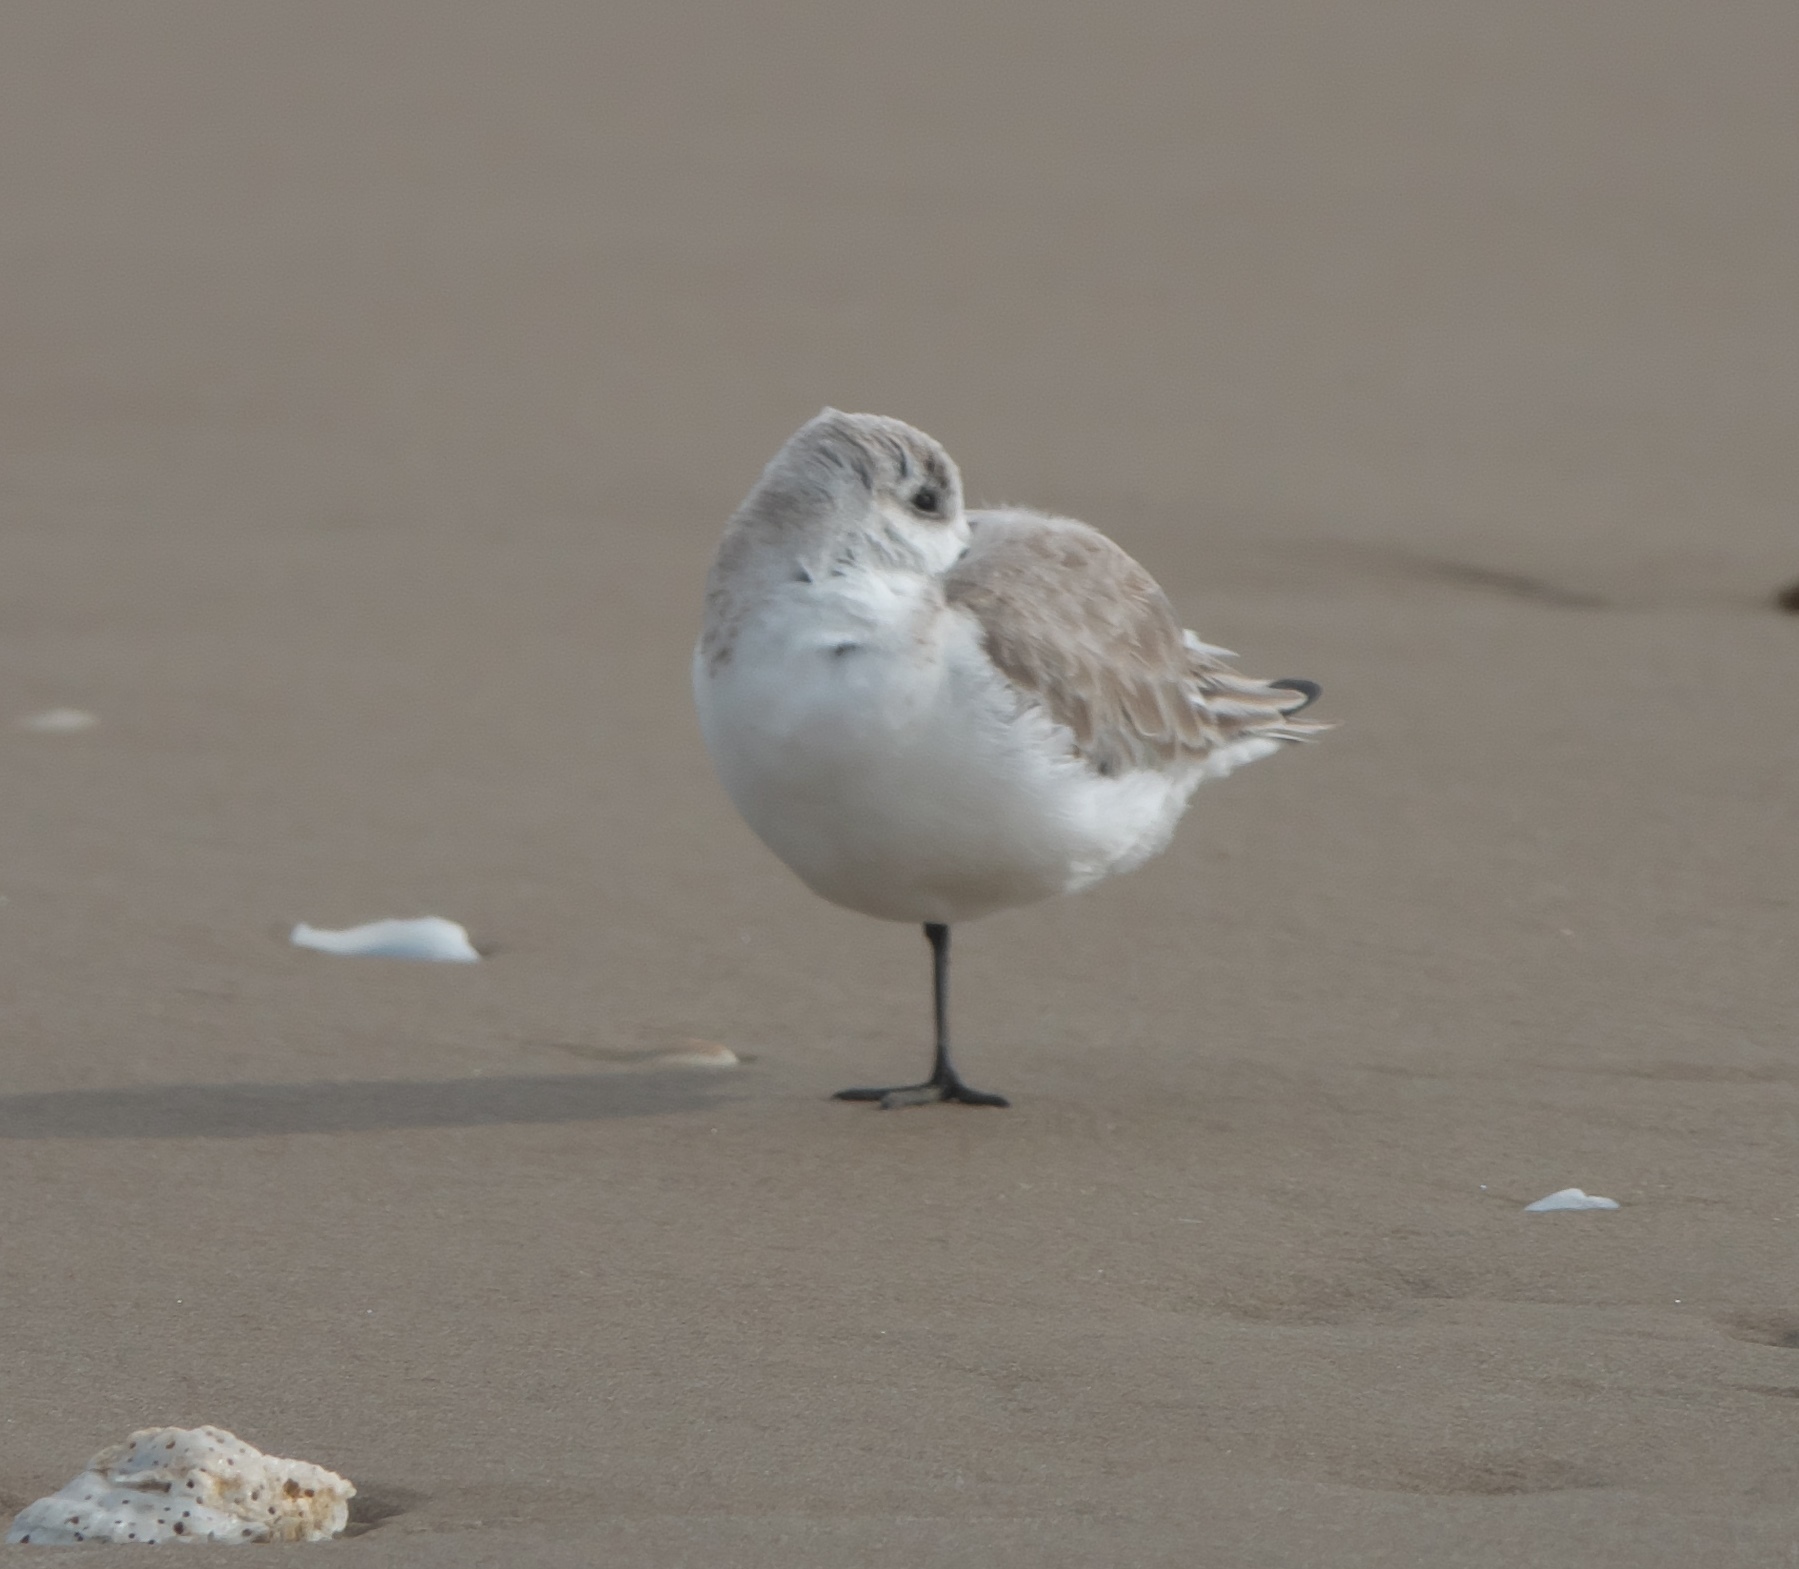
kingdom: Animalia
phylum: Chordata
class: Aves
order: Charadriiformes
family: Scolopacidae
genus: Calidris
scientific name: Calidris alba
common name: Sanderling
